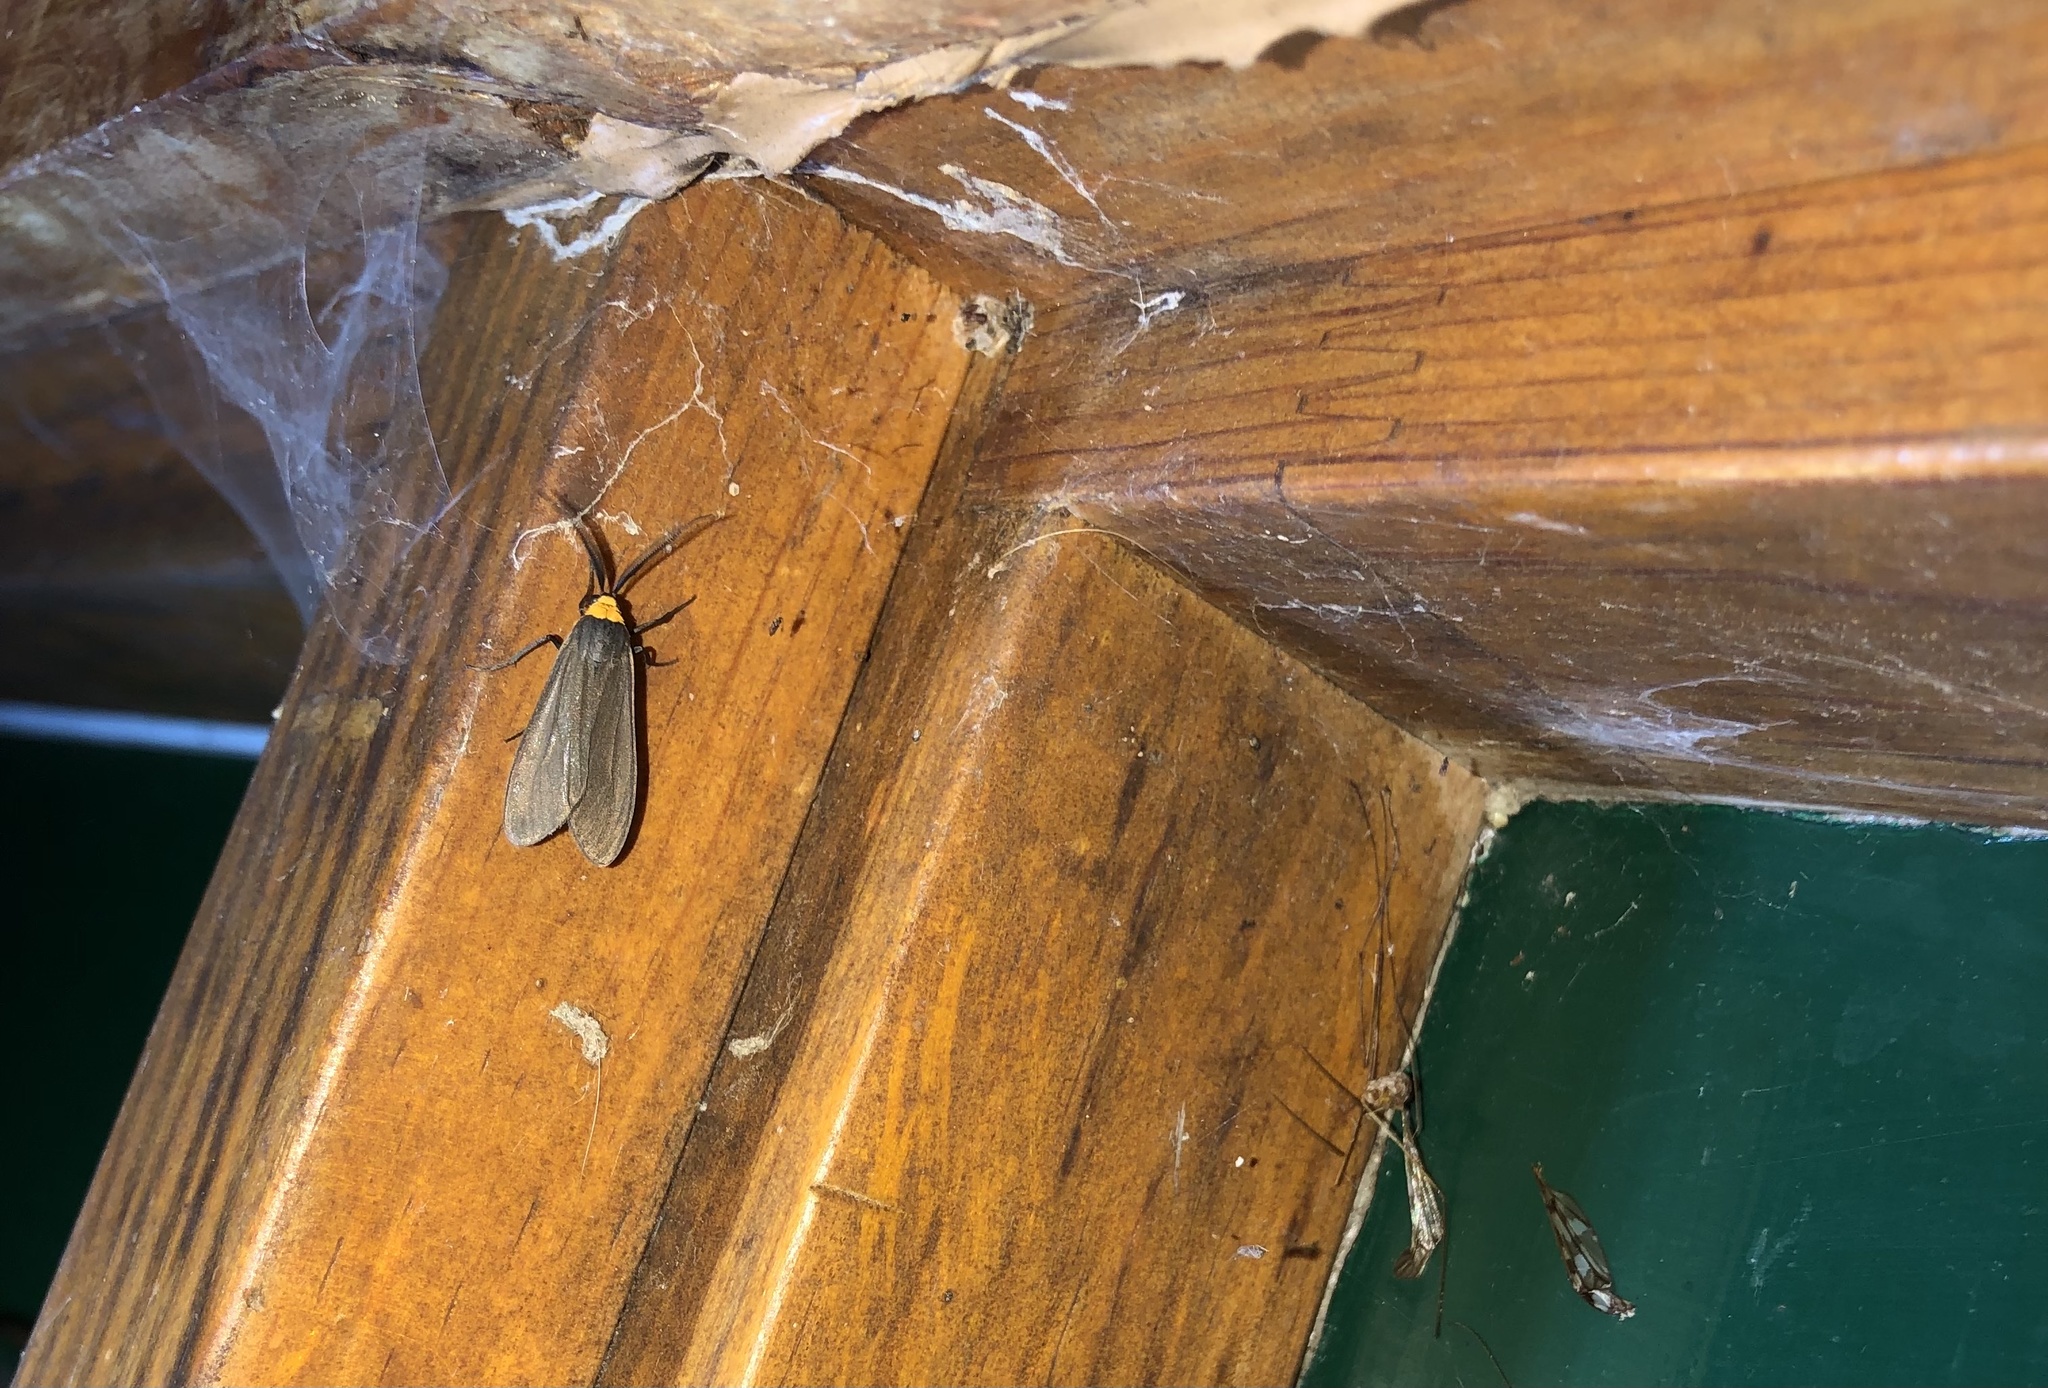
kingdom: Animalia
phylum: Arthropoda
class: Insecta
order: Lepidoptera
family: Erebidae
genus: Cisseps
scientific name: Cisseps fulvicollis
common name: Yellow-collared scape moth
